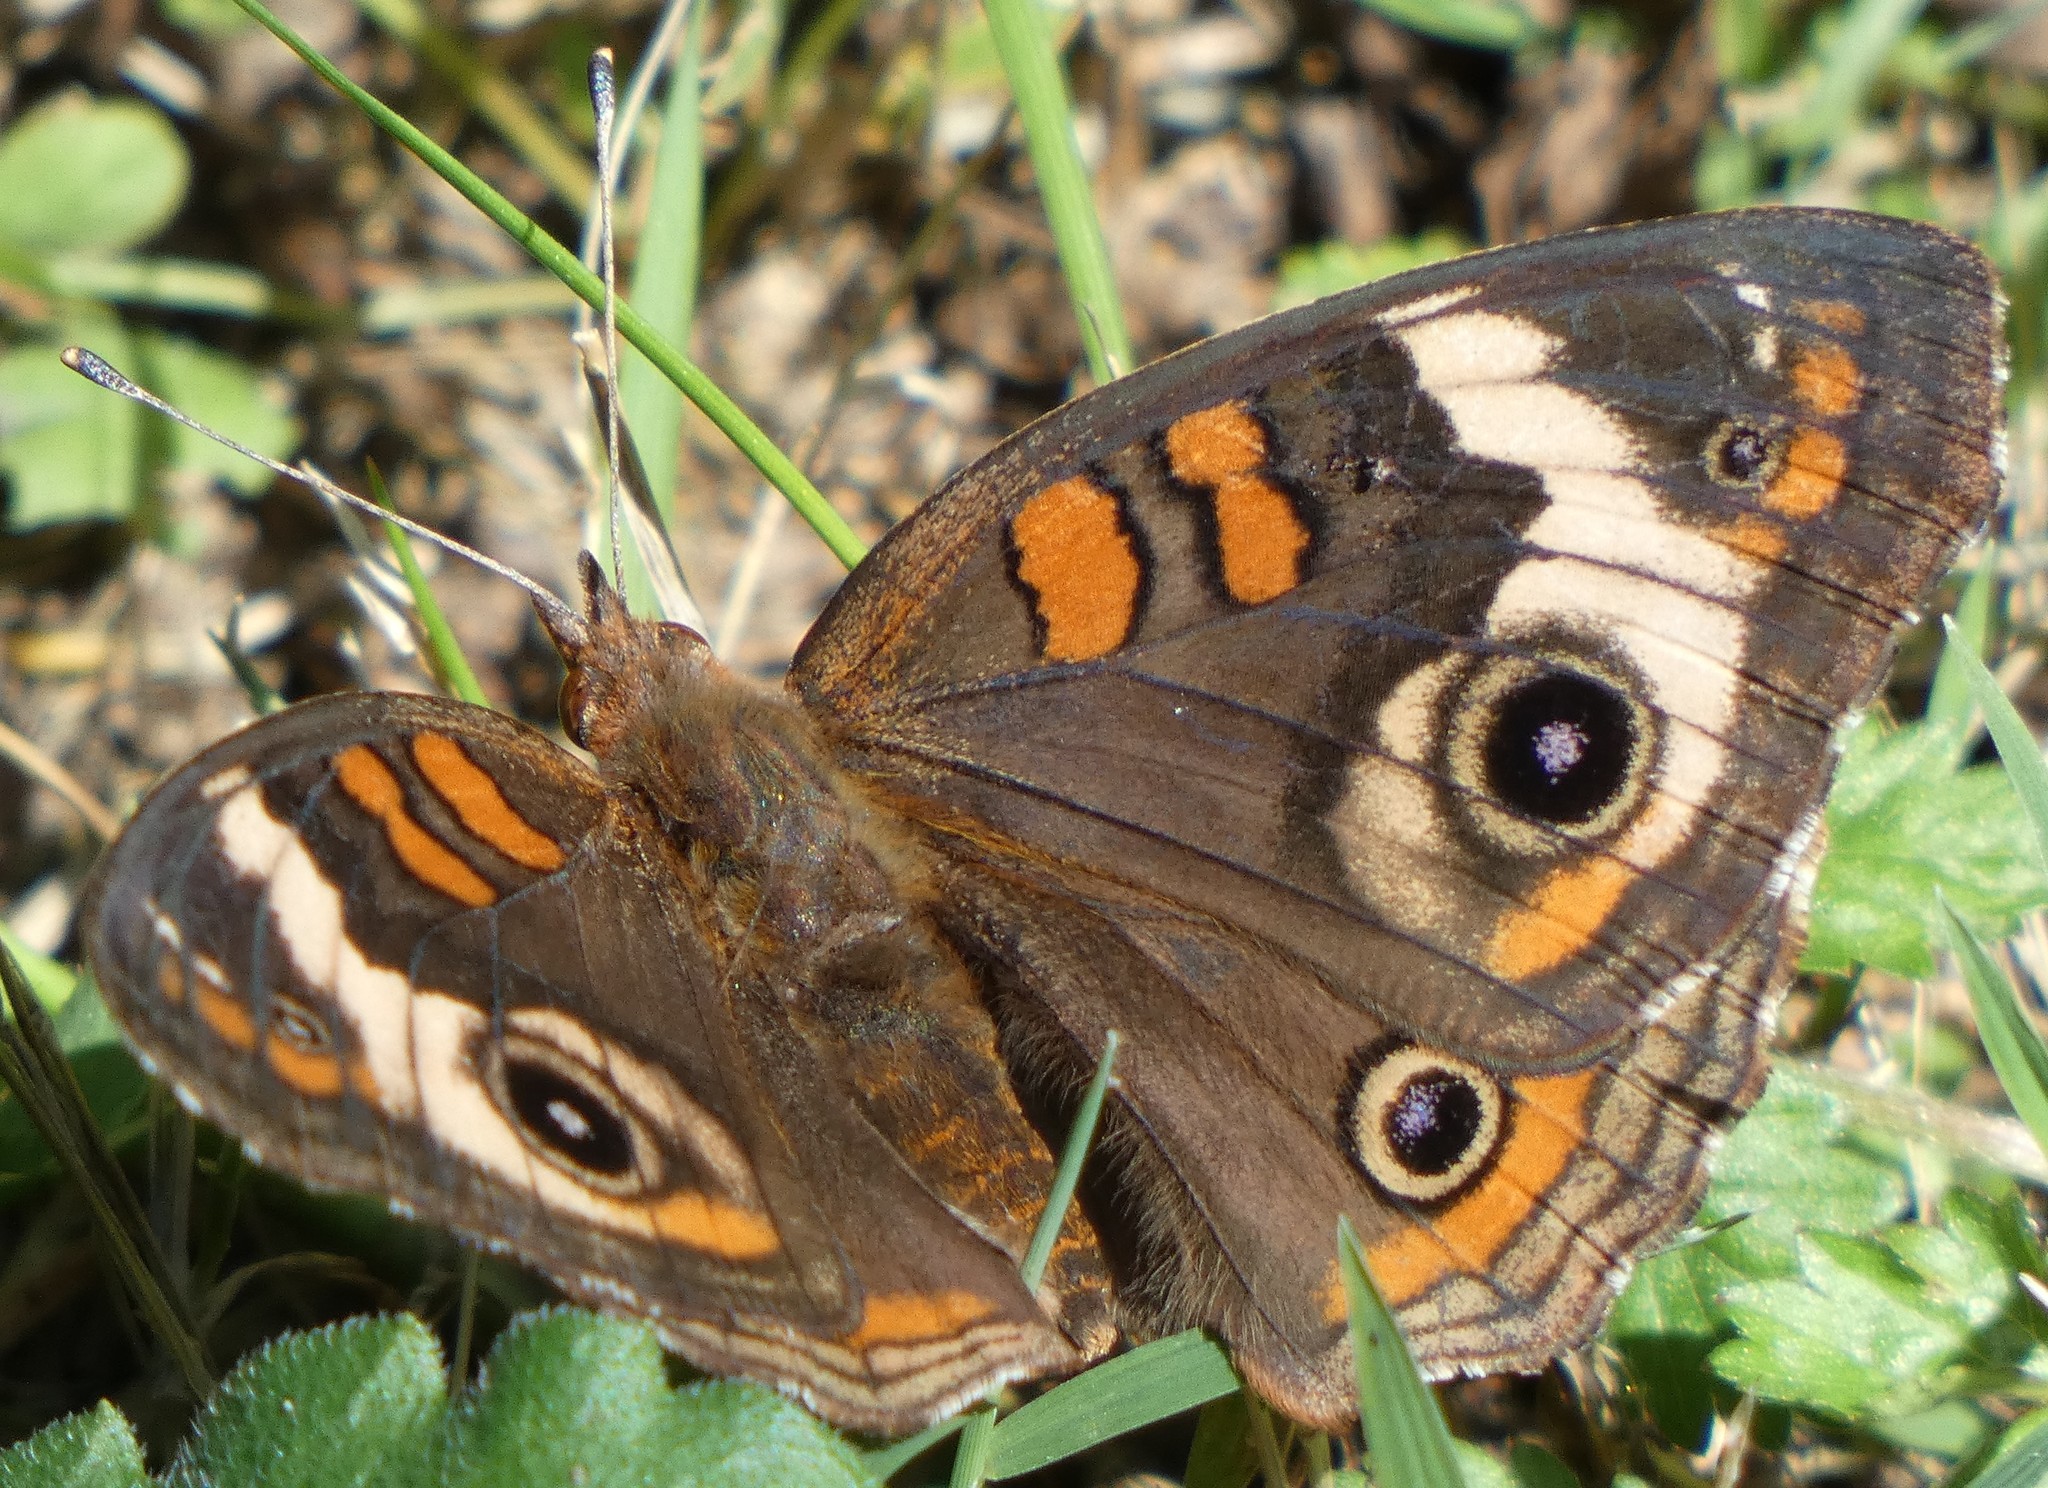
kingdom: Animalia
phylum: Arthropoda
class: Insecta
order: Lepidoptera
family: Nymphalidae
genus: Junonia
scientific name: Junonia coenia
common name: Common buckeye
